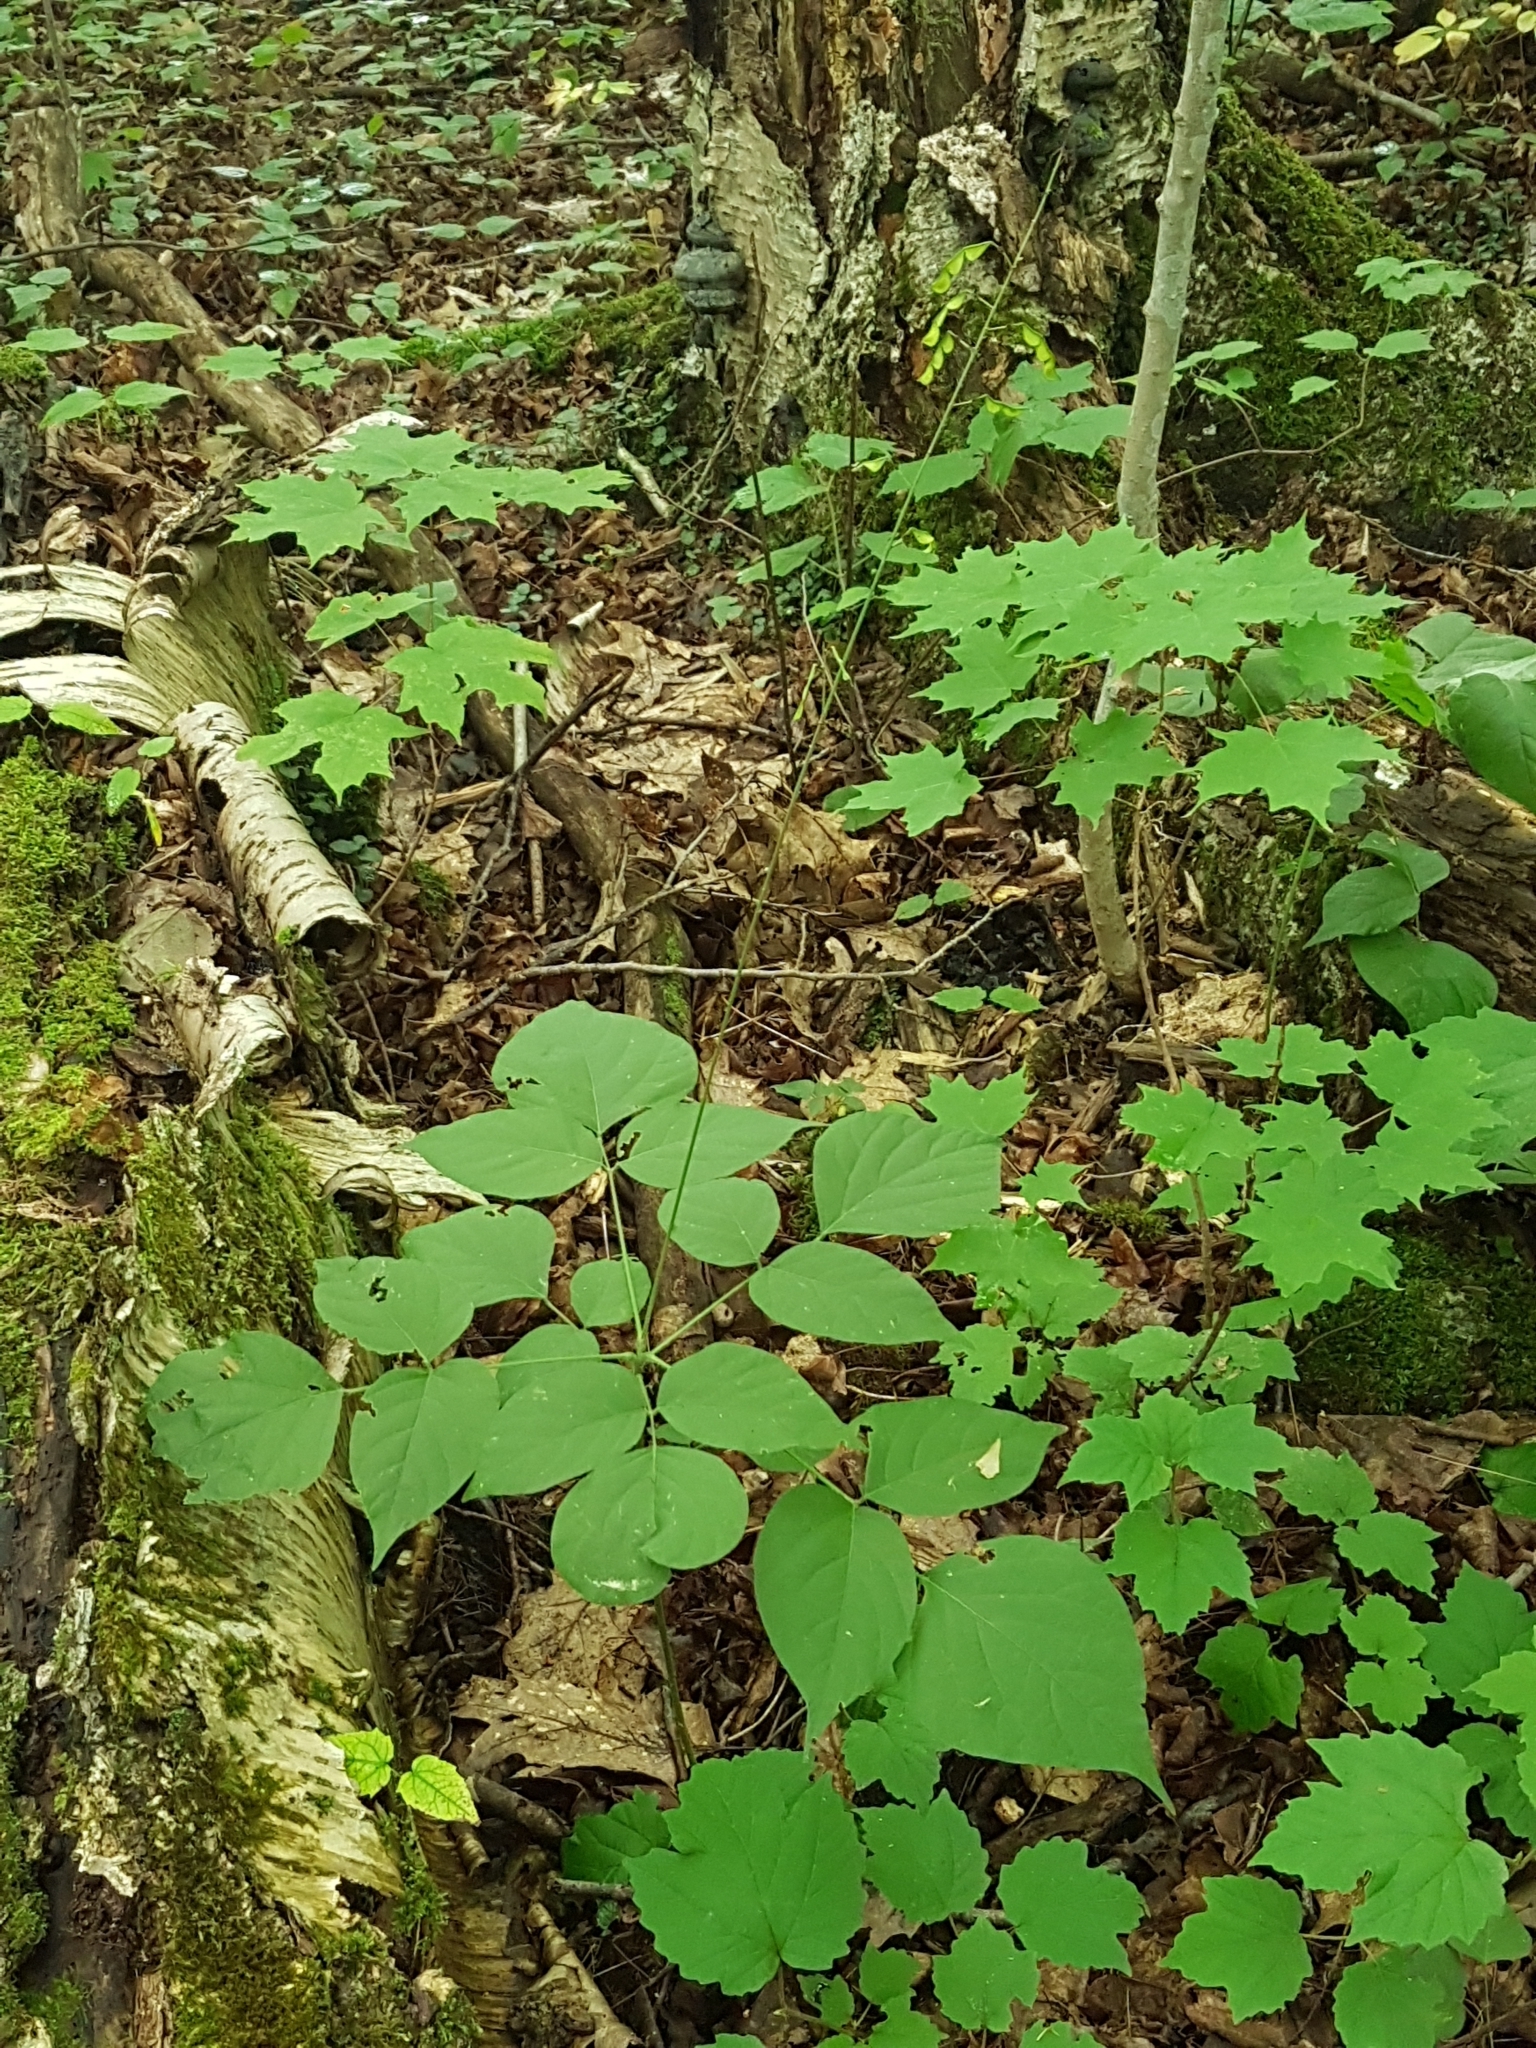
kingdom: Plantae
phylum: Tracheophyta
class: Magnoliopsida
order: Fabales
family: Fabaceae
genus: Hylodesmum
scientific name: Hylodesmum glutinosum
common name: Clustered-leaved tick-trefoil
